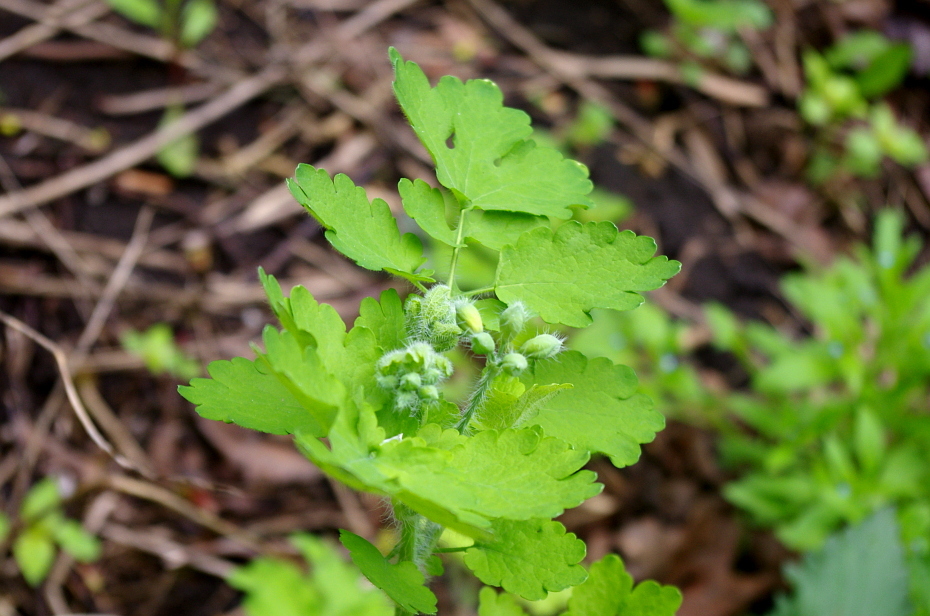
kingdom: Plantae
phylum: Tracheophyta
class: Magnoliopsida
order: Ranunculales
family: Papaveraceae
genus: Chelidonium
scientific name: Chelidonium majus
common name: Greater celandine
